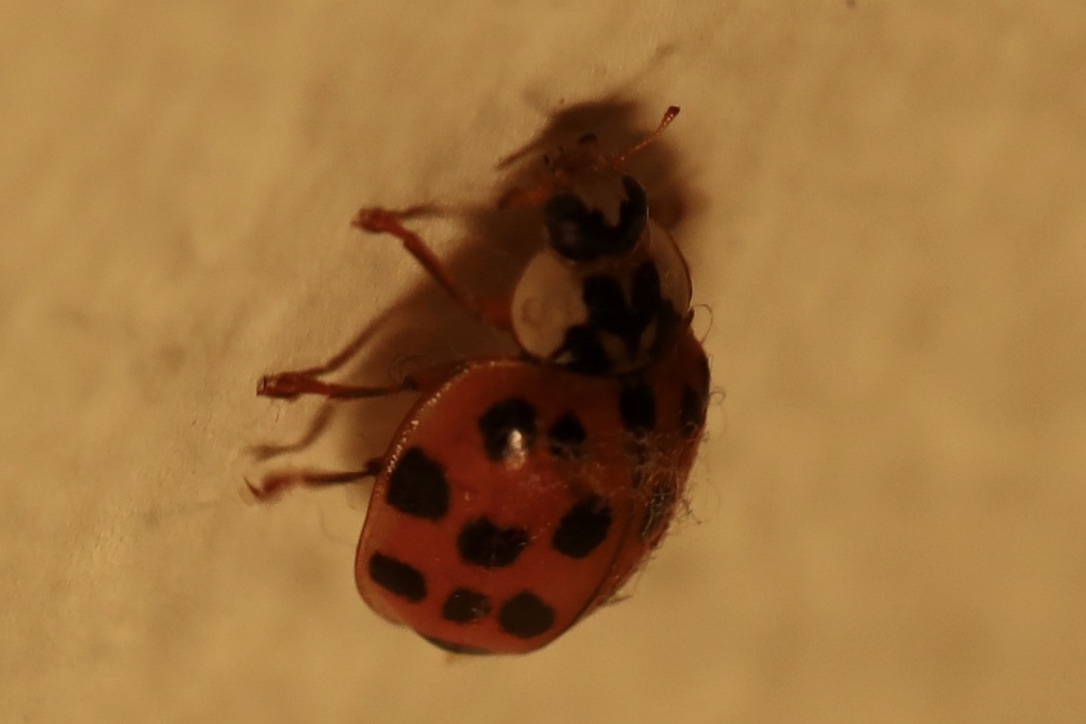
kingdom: Animalia
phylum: Arthropoda
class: Insecta
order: Coleoptera
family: Coccinellidae
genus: Harmonia
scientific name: Harmonia axyridis
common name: Harlequin ladybird
